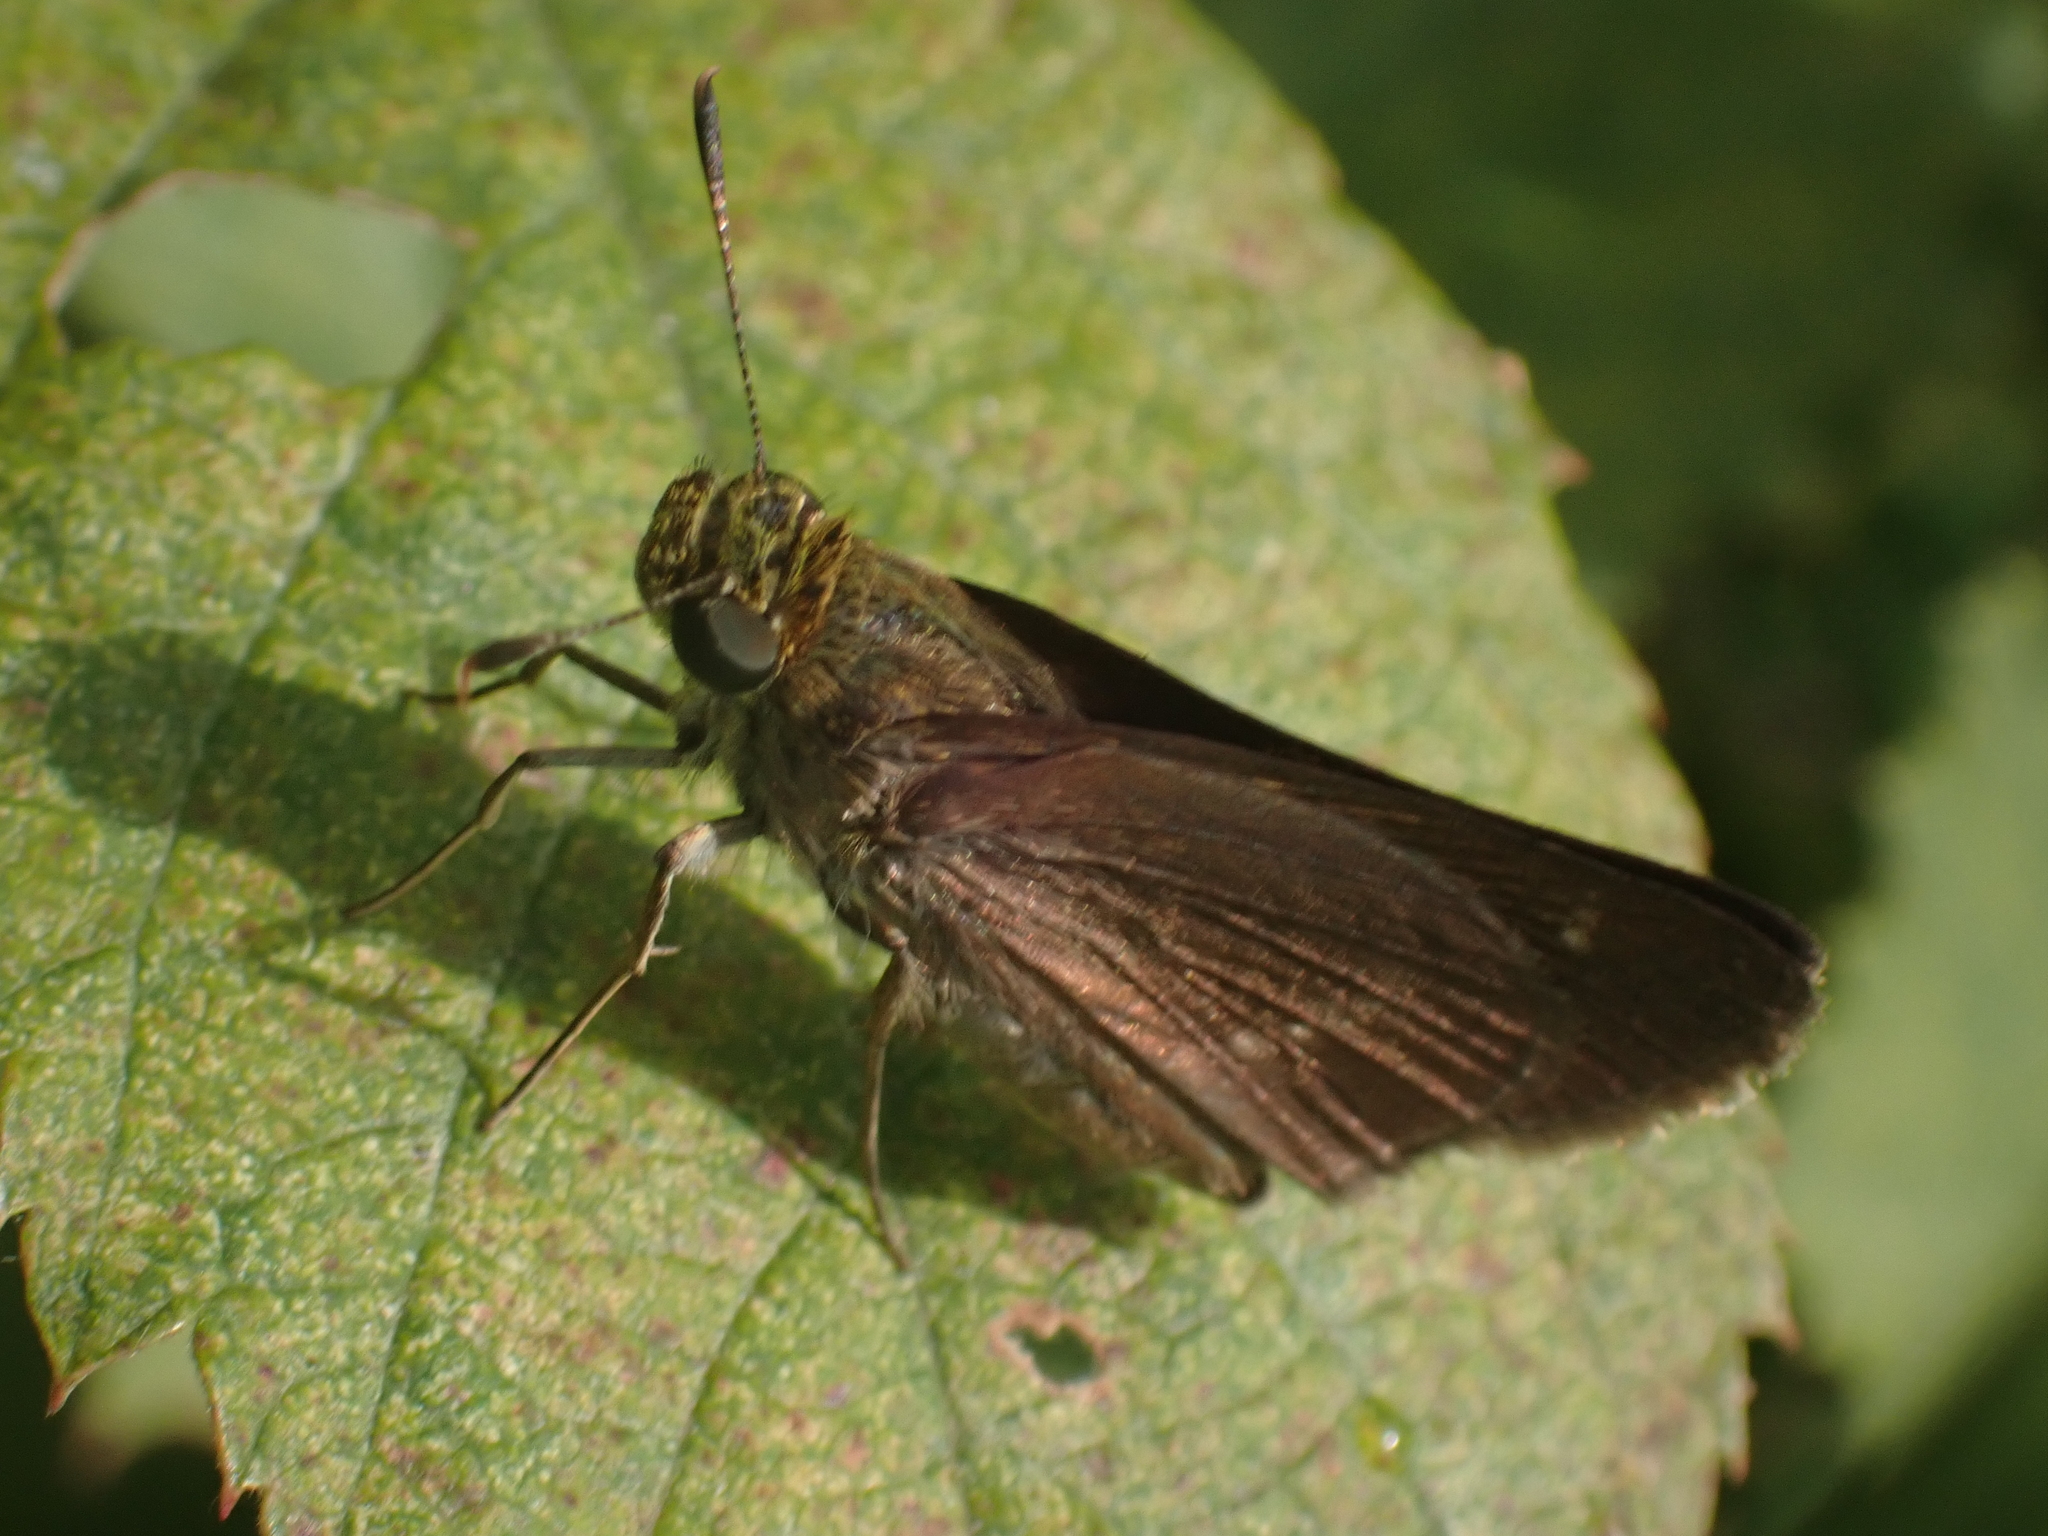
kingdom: Animalia
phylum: Arthropoda
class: Insecta
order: Lepidoptera
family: Hesperiidae
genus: Euphyes
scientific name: Euphyes vestris
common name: Dun skipper
